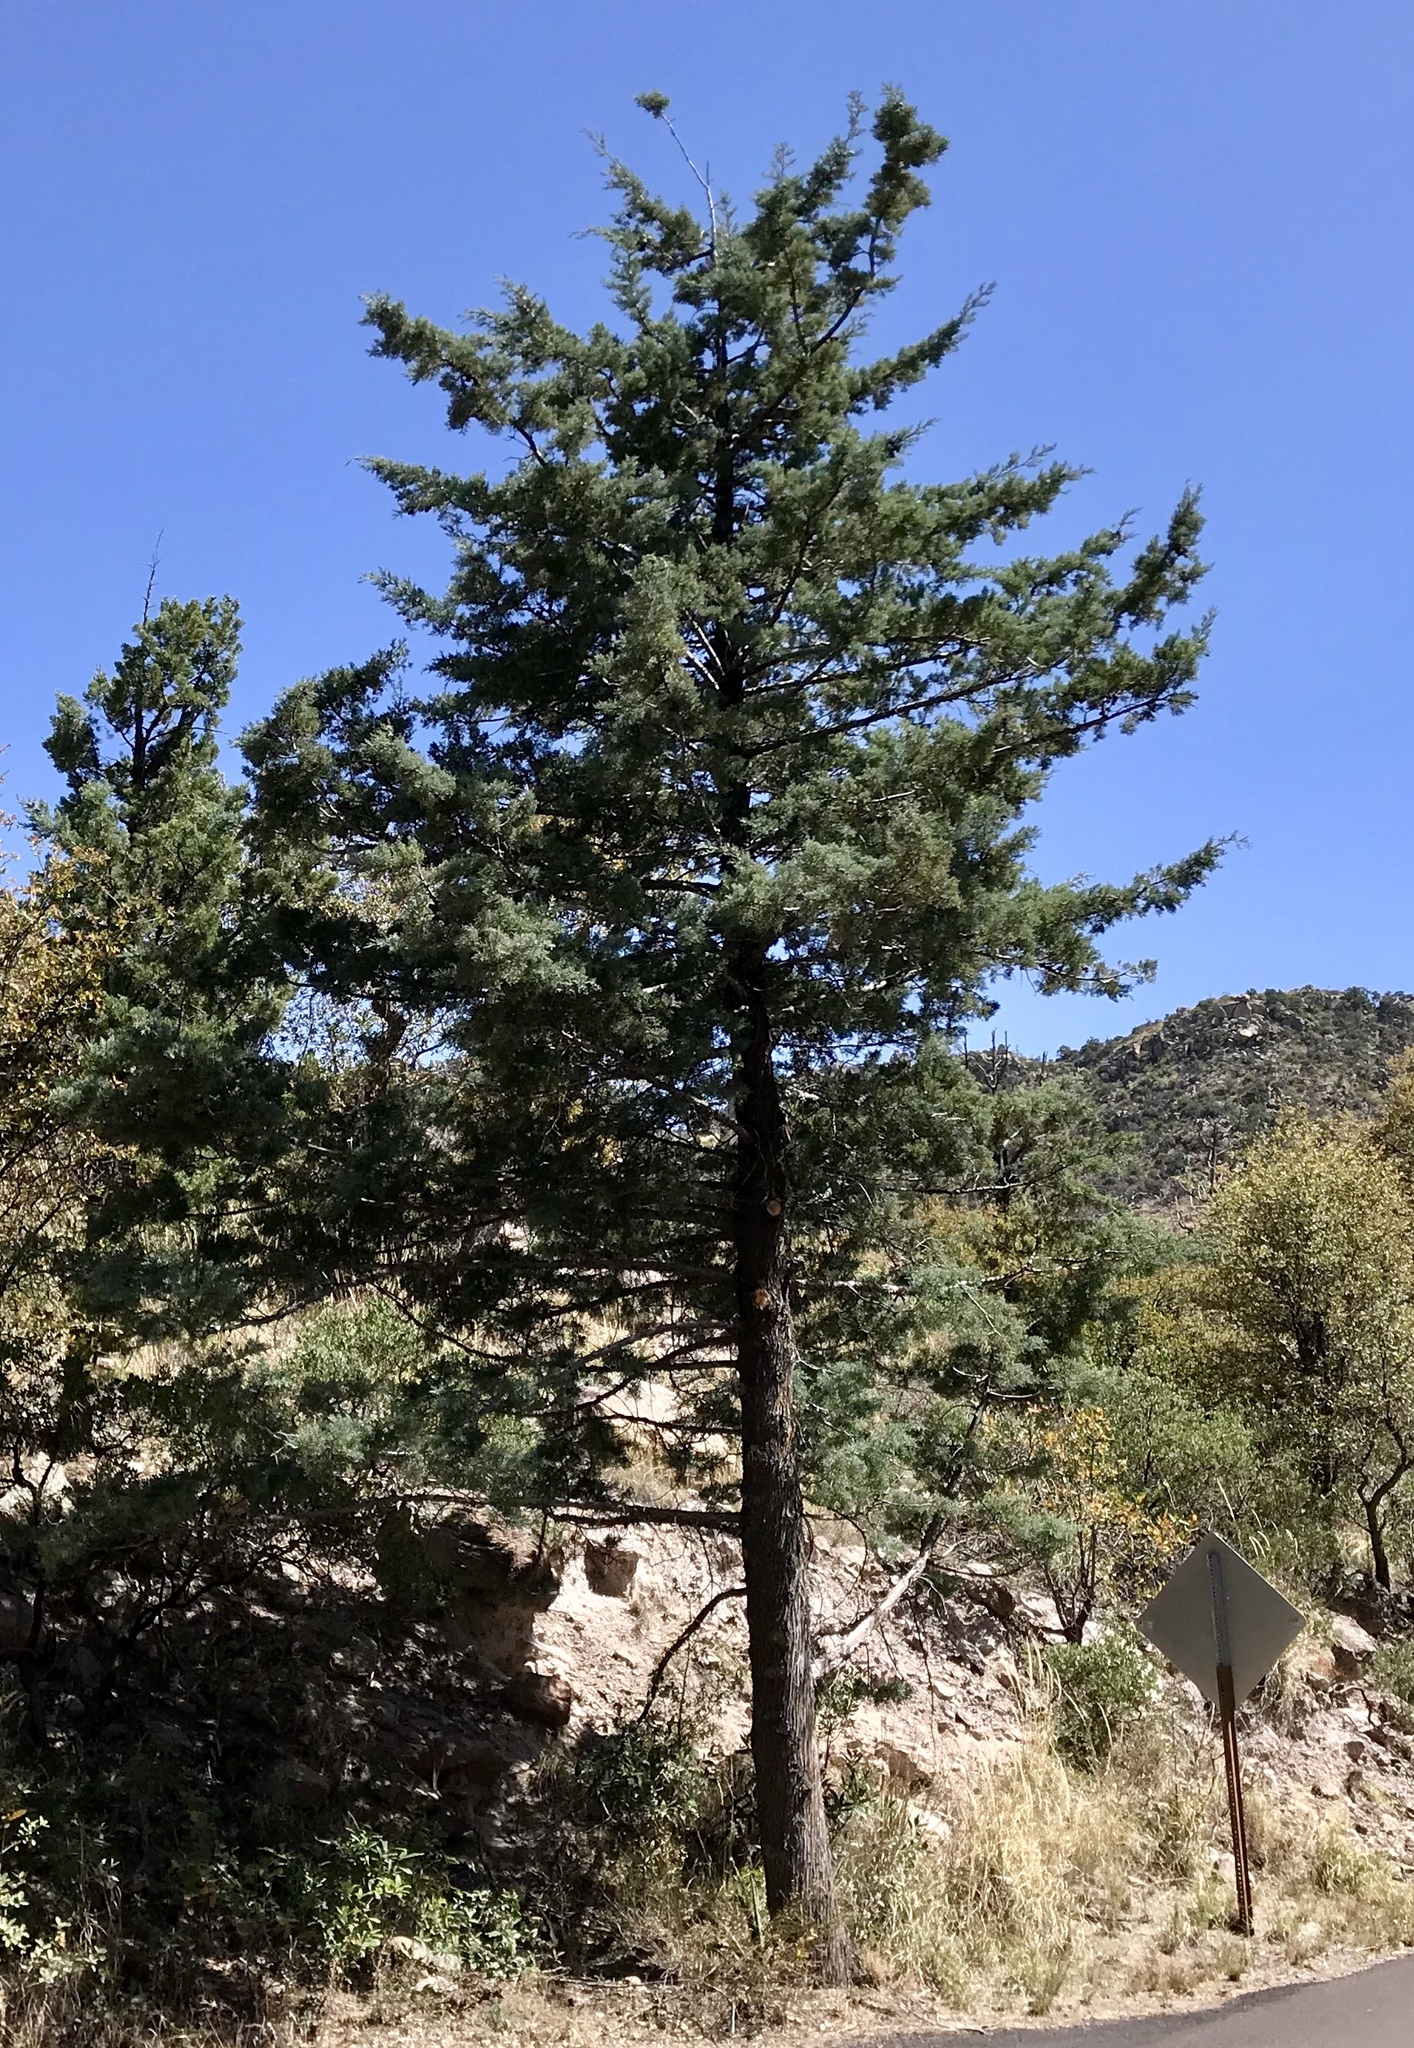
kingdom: Plantae
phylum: Tracheophyta
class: Pinopsida
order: Pinales
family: Cupressaceae
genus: Cupressus
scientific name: Cupressus arizonica
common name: Arizona cypress
